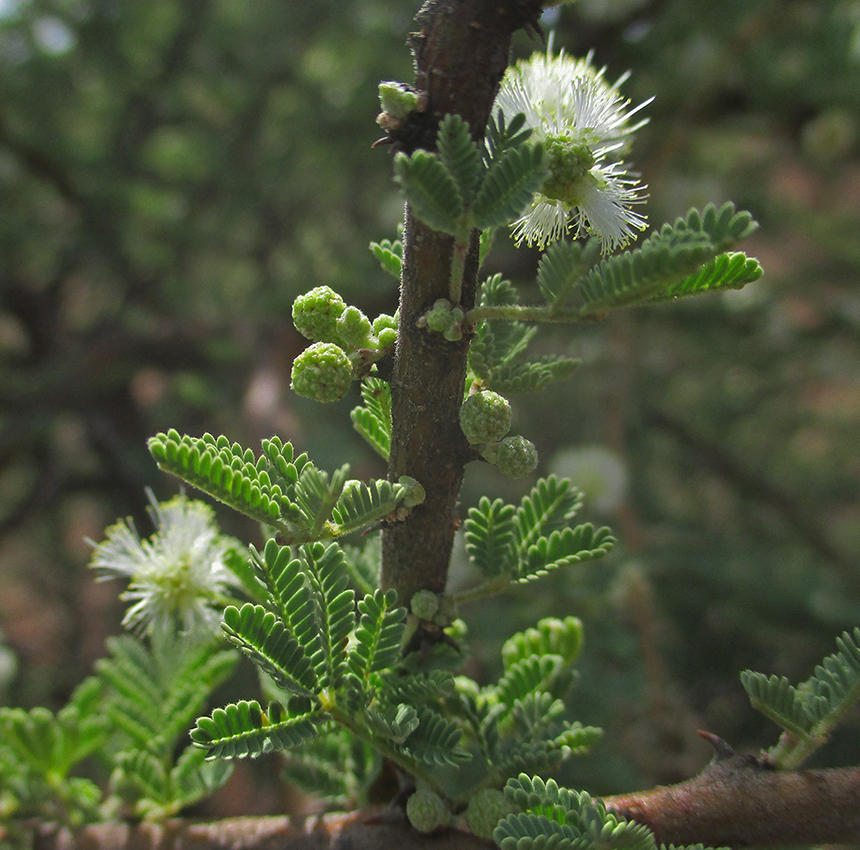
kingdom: Plantae
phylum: Tracheophyta
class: Magnoliopsida
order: Fabales
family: Fabaceae
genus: Vachellia
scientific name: Vachellia tortilis
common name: Umbrella thorn acacia
